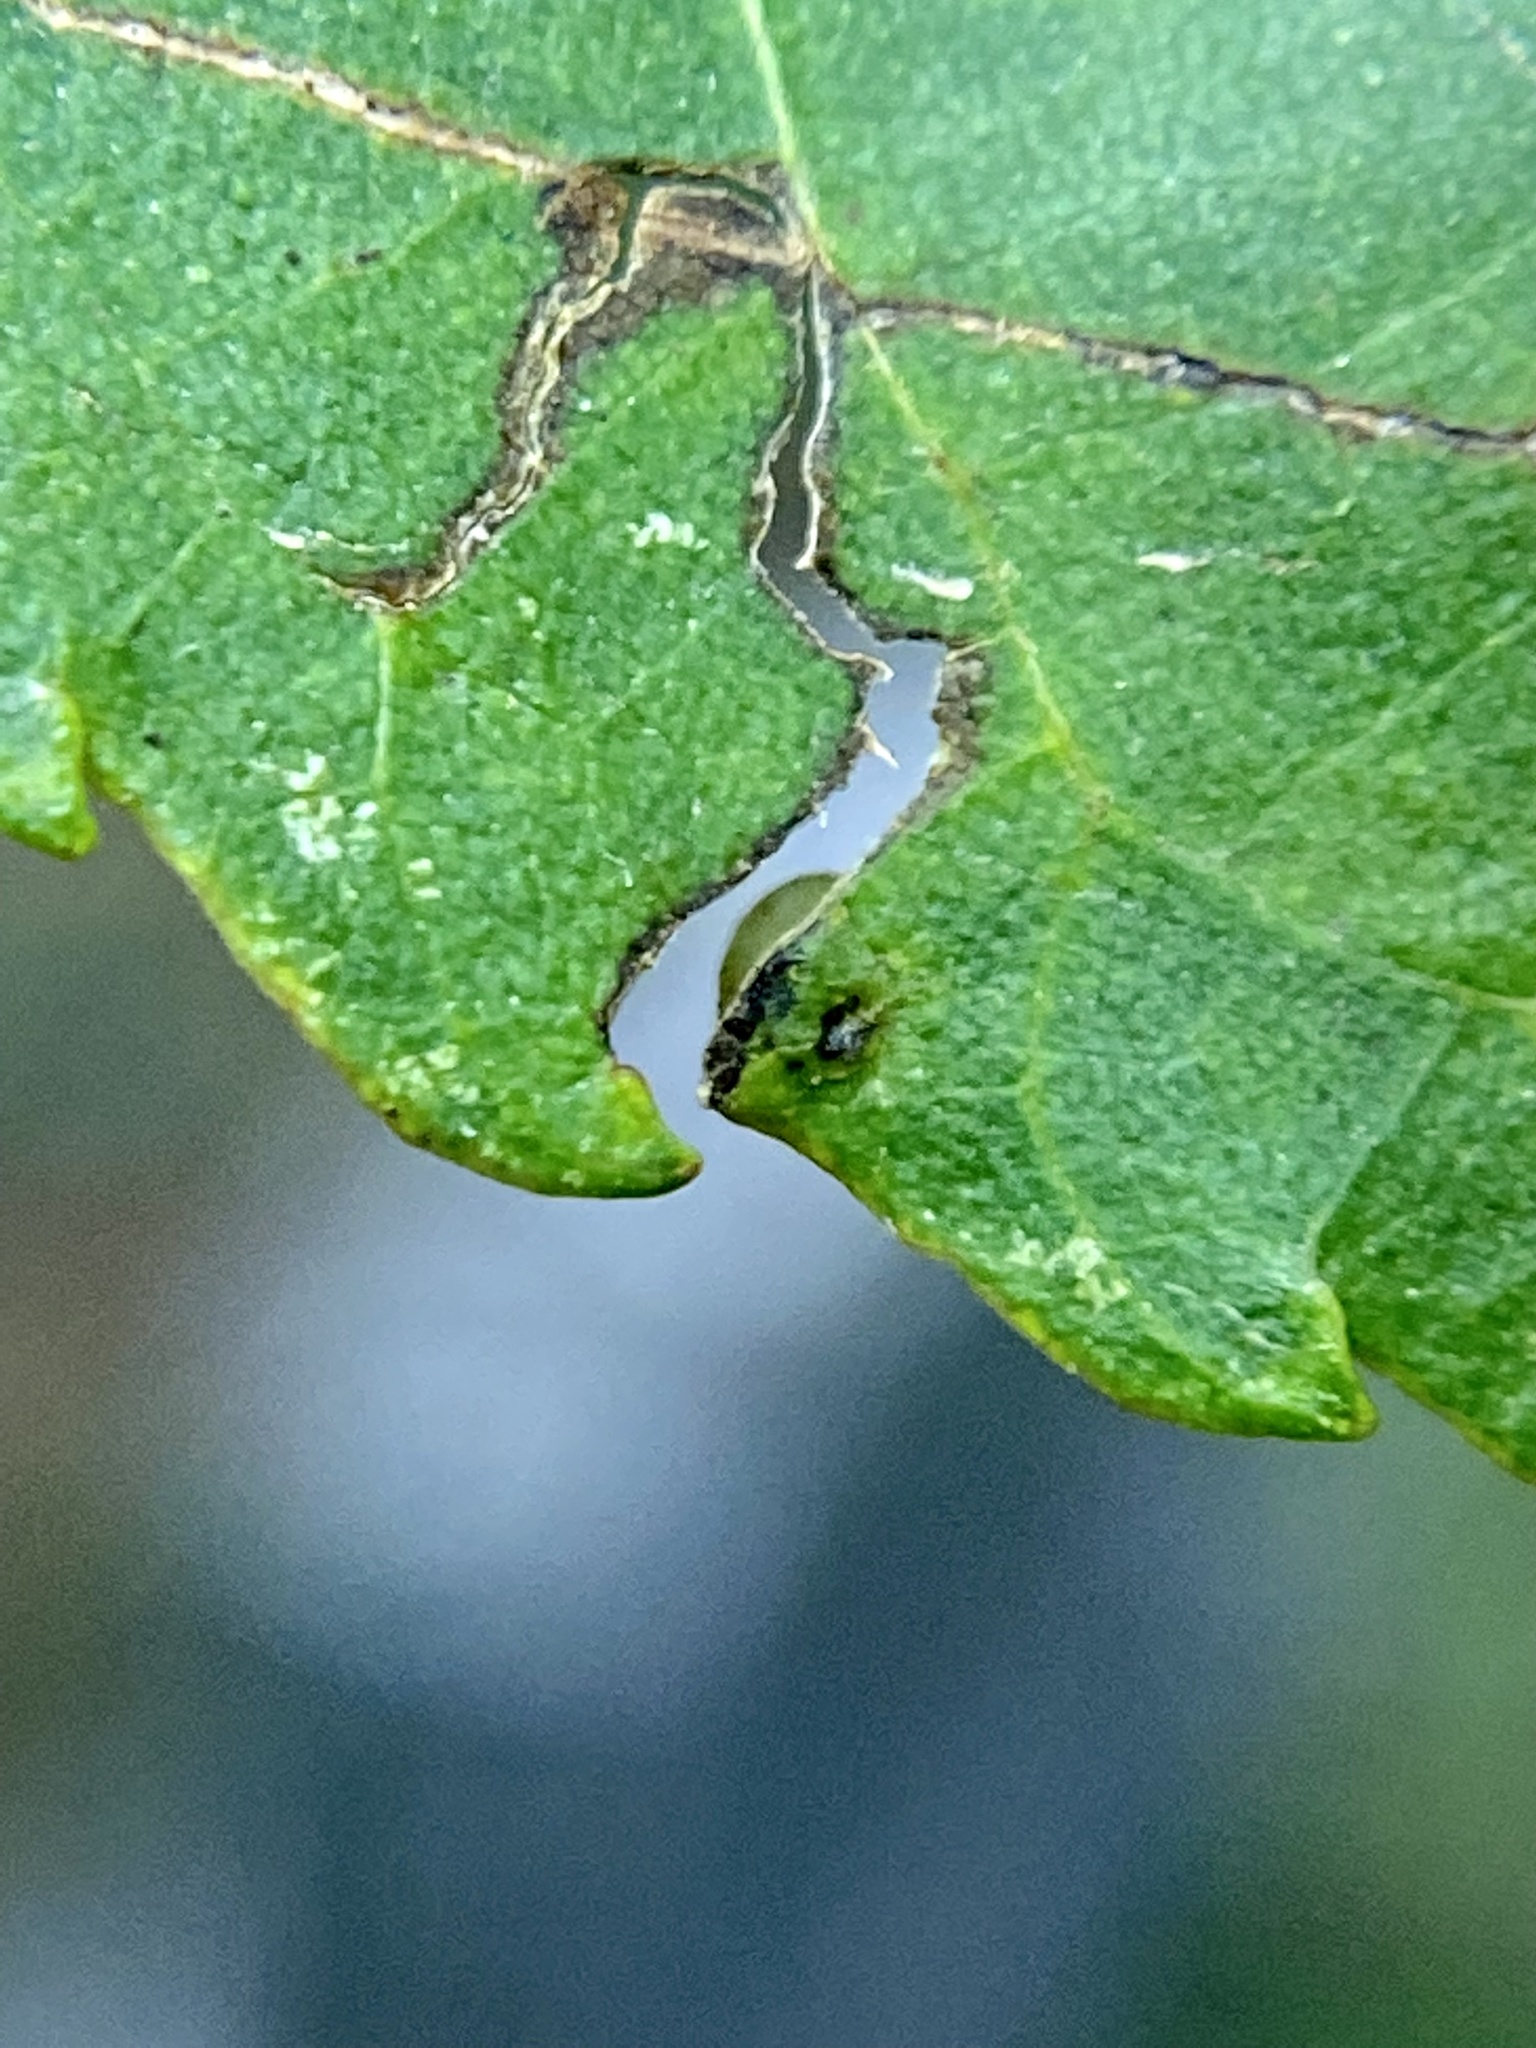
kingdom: Animalia
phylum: Arthropoda
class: Insecta
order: Diptera
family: Cecidomyiidae
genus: Caryomyia
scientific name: Caryomyia caryae
